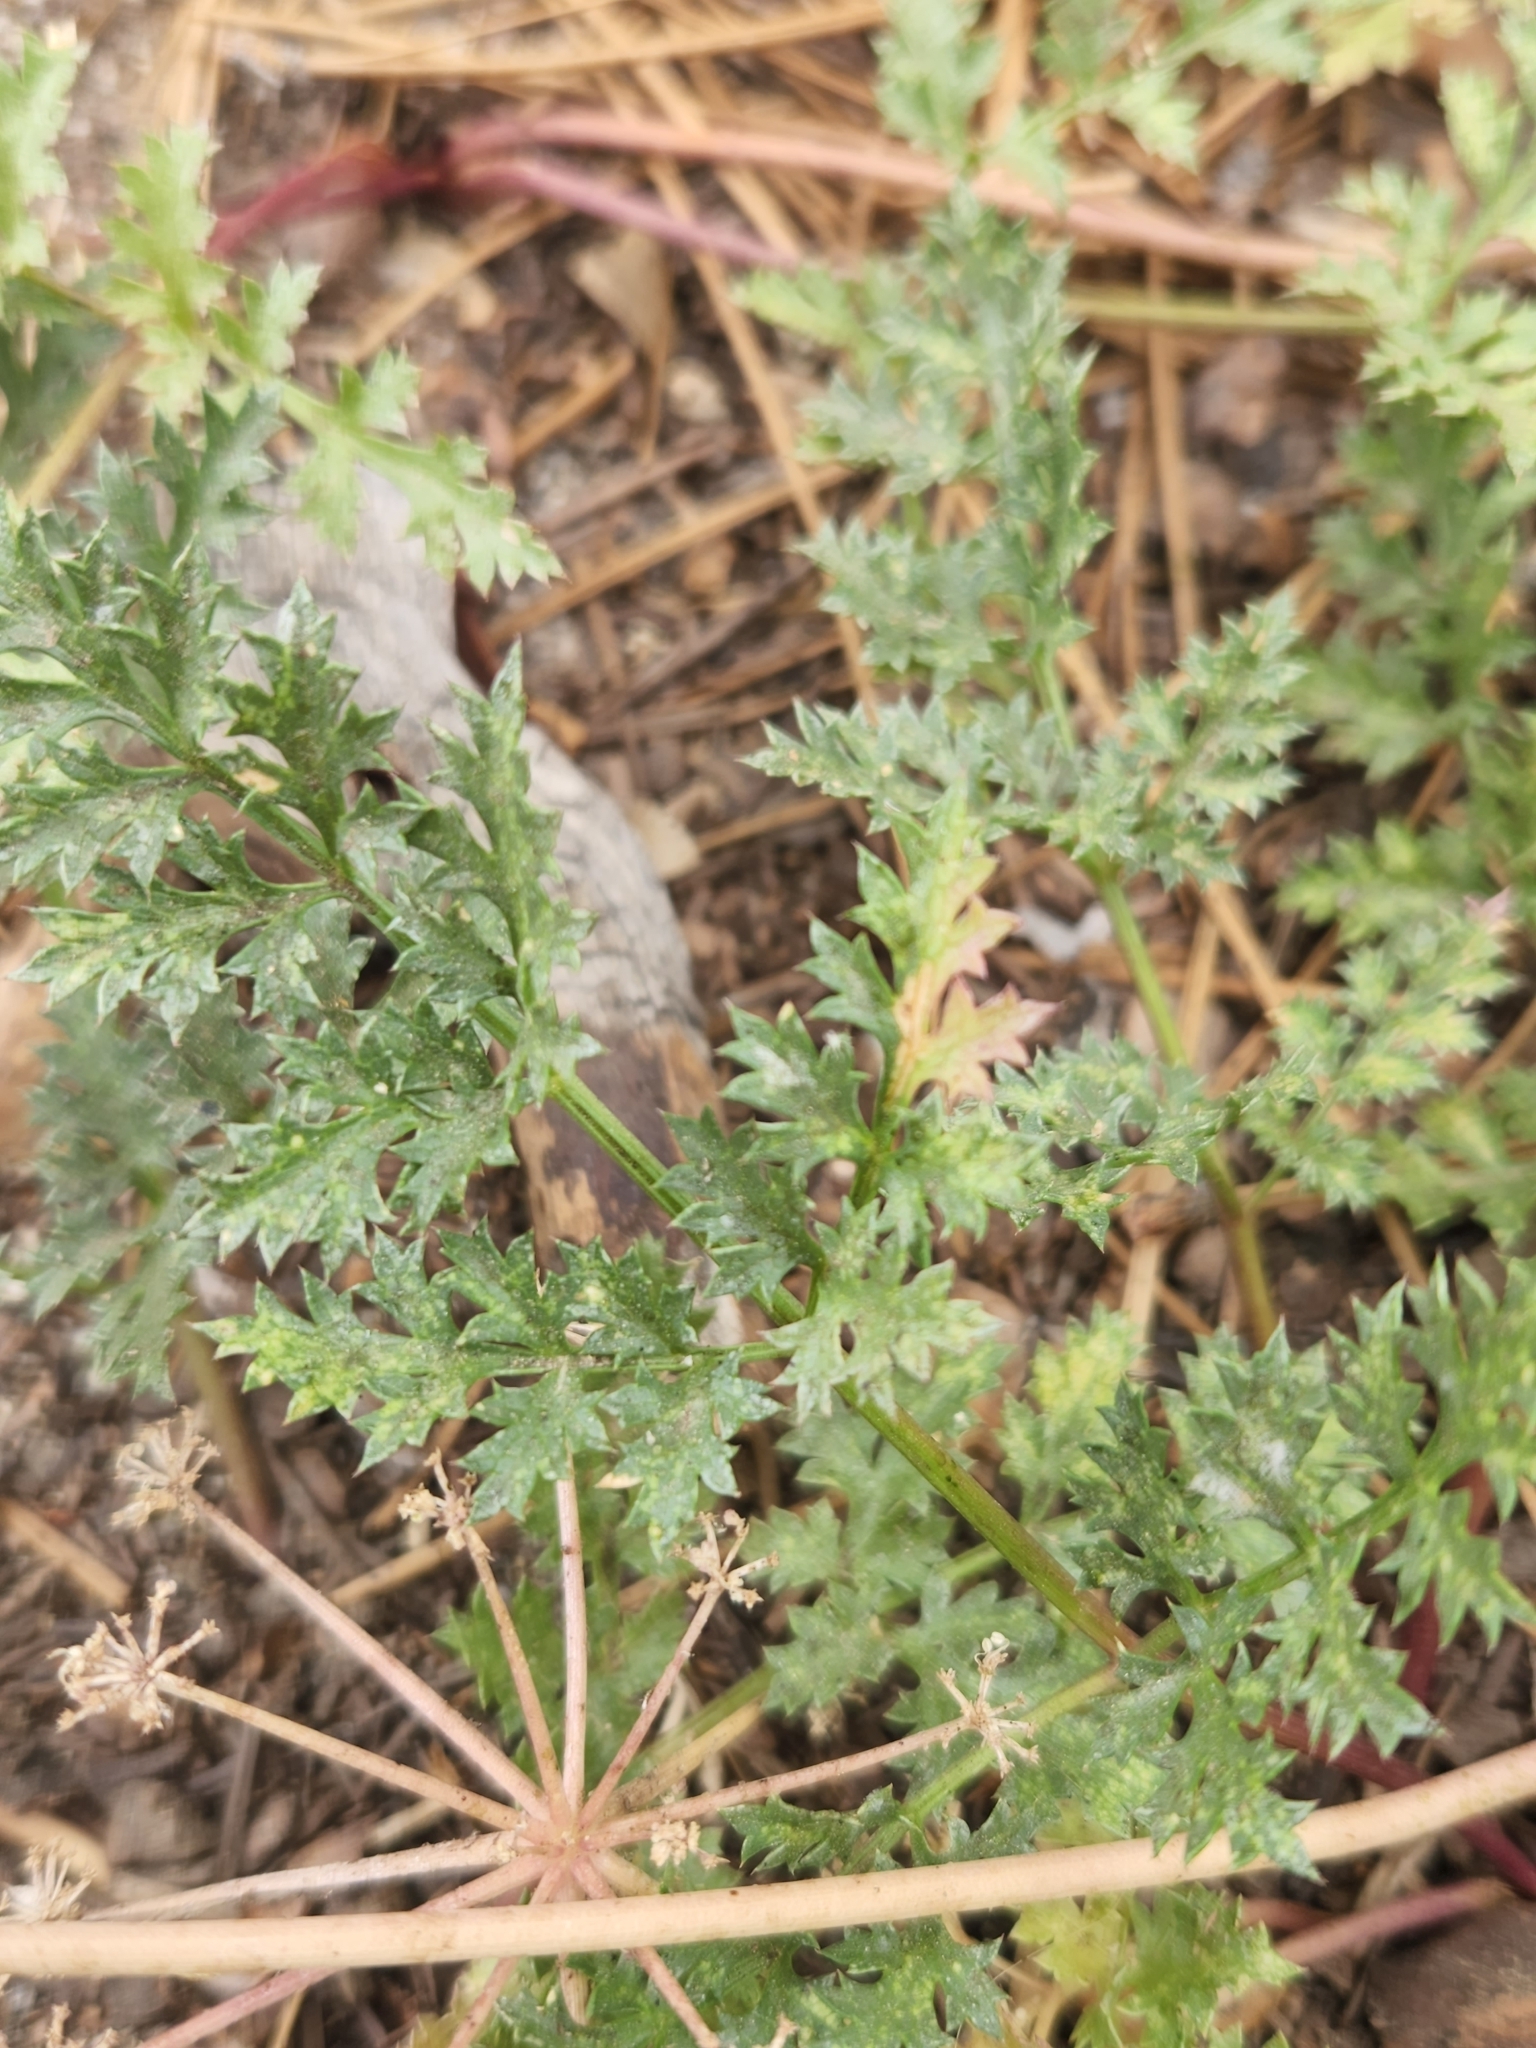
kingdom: Plantae
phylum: Tracheophyta
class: Magnoliopsida
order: Apiales
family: Apiaceae
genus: Tauschia
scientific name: Tauschia parishii
